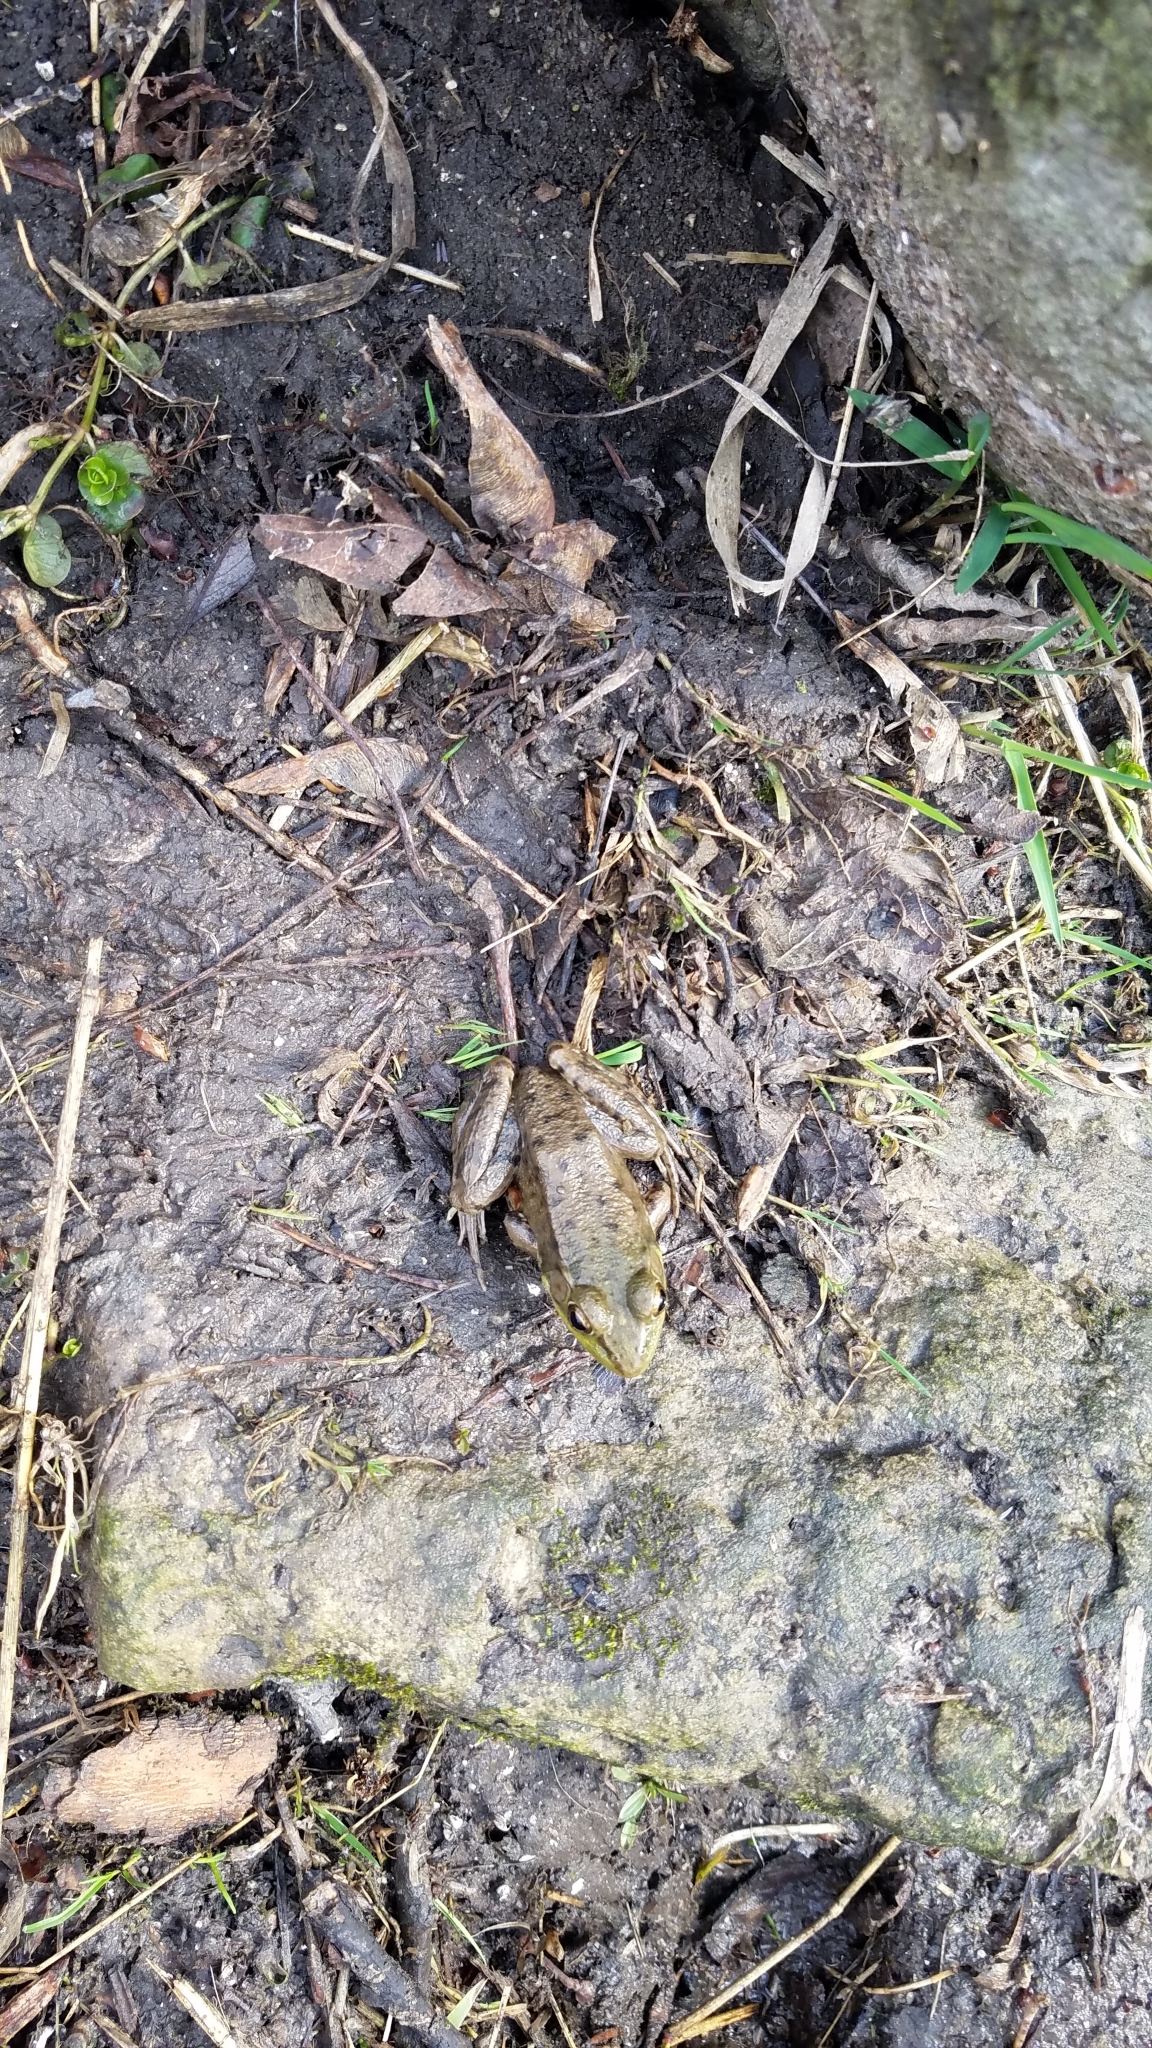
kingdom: Animalia
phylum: Chordata
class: Amphibia
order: Anura
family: Ranidae
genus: Lithobates
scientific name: Lithobates clamitans
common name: Green frog
